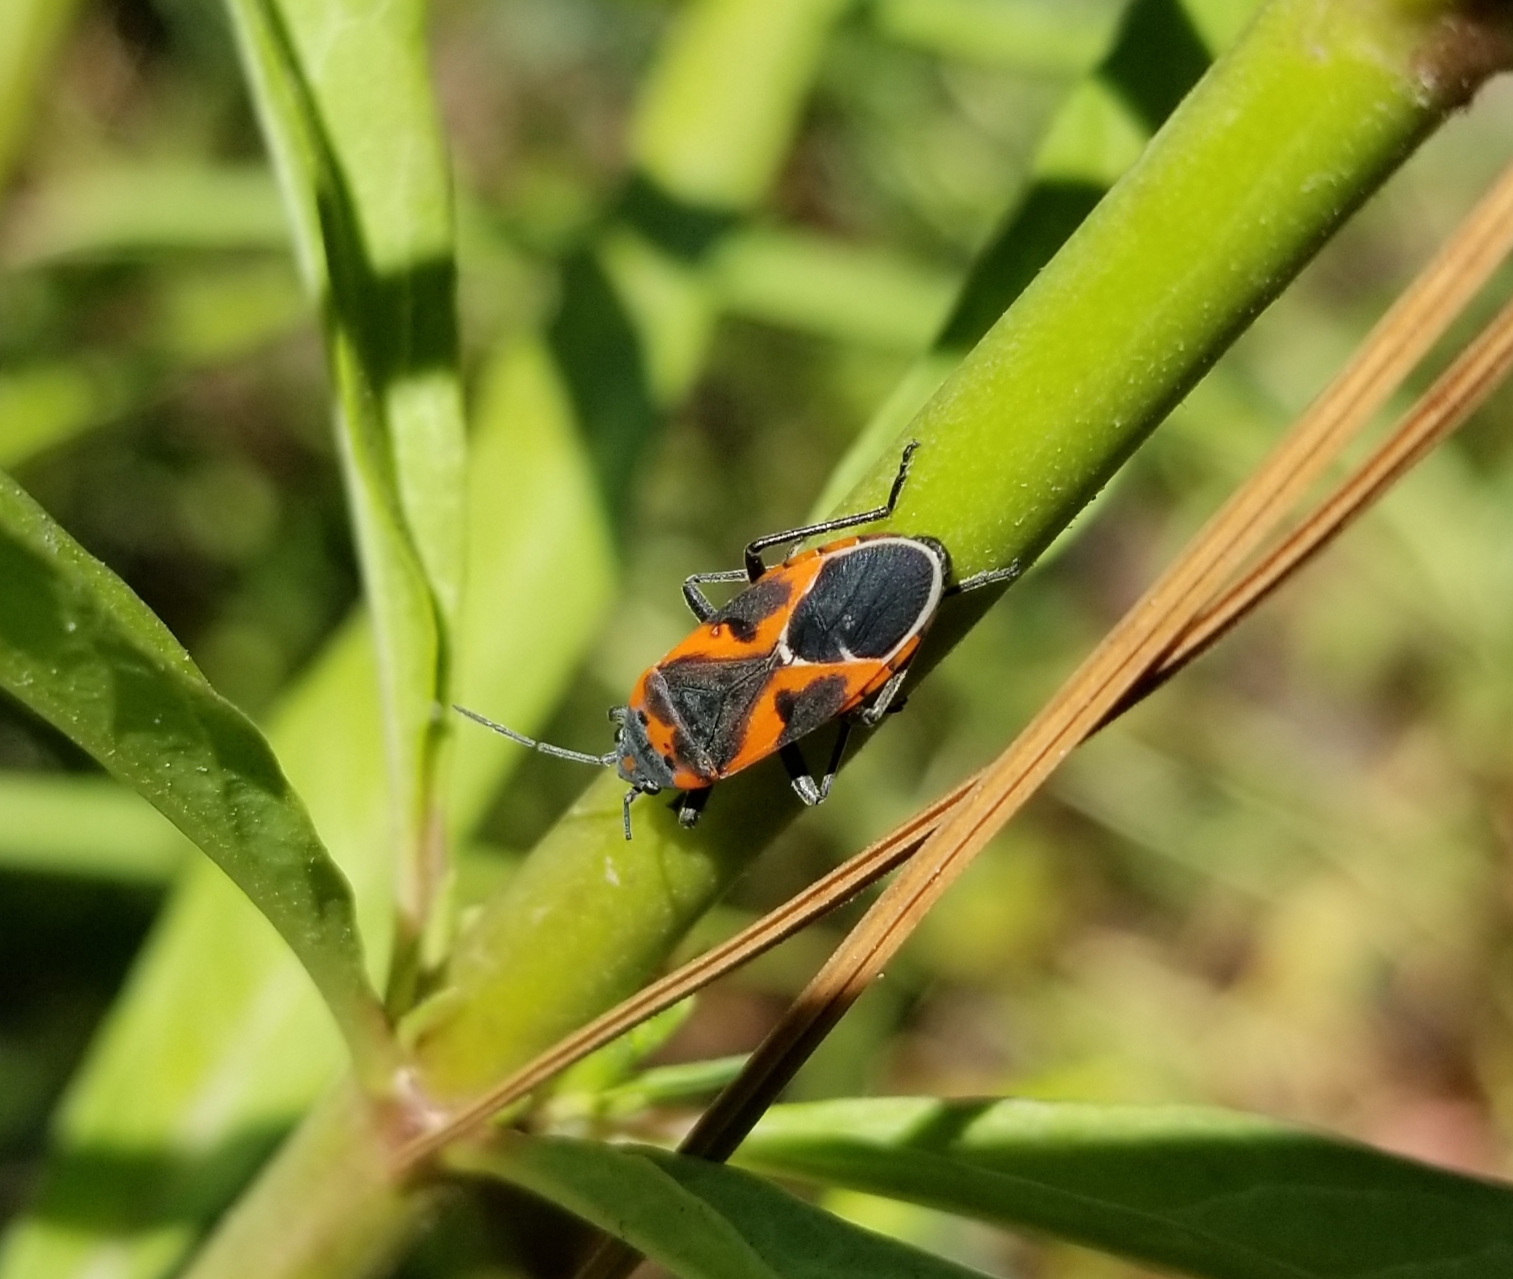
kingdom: Animalia
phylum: Arthropoda
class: Insecta
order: Hemiptera
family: Lygaeidae
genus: Lygaeus
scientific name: Lygaeus kalmii
